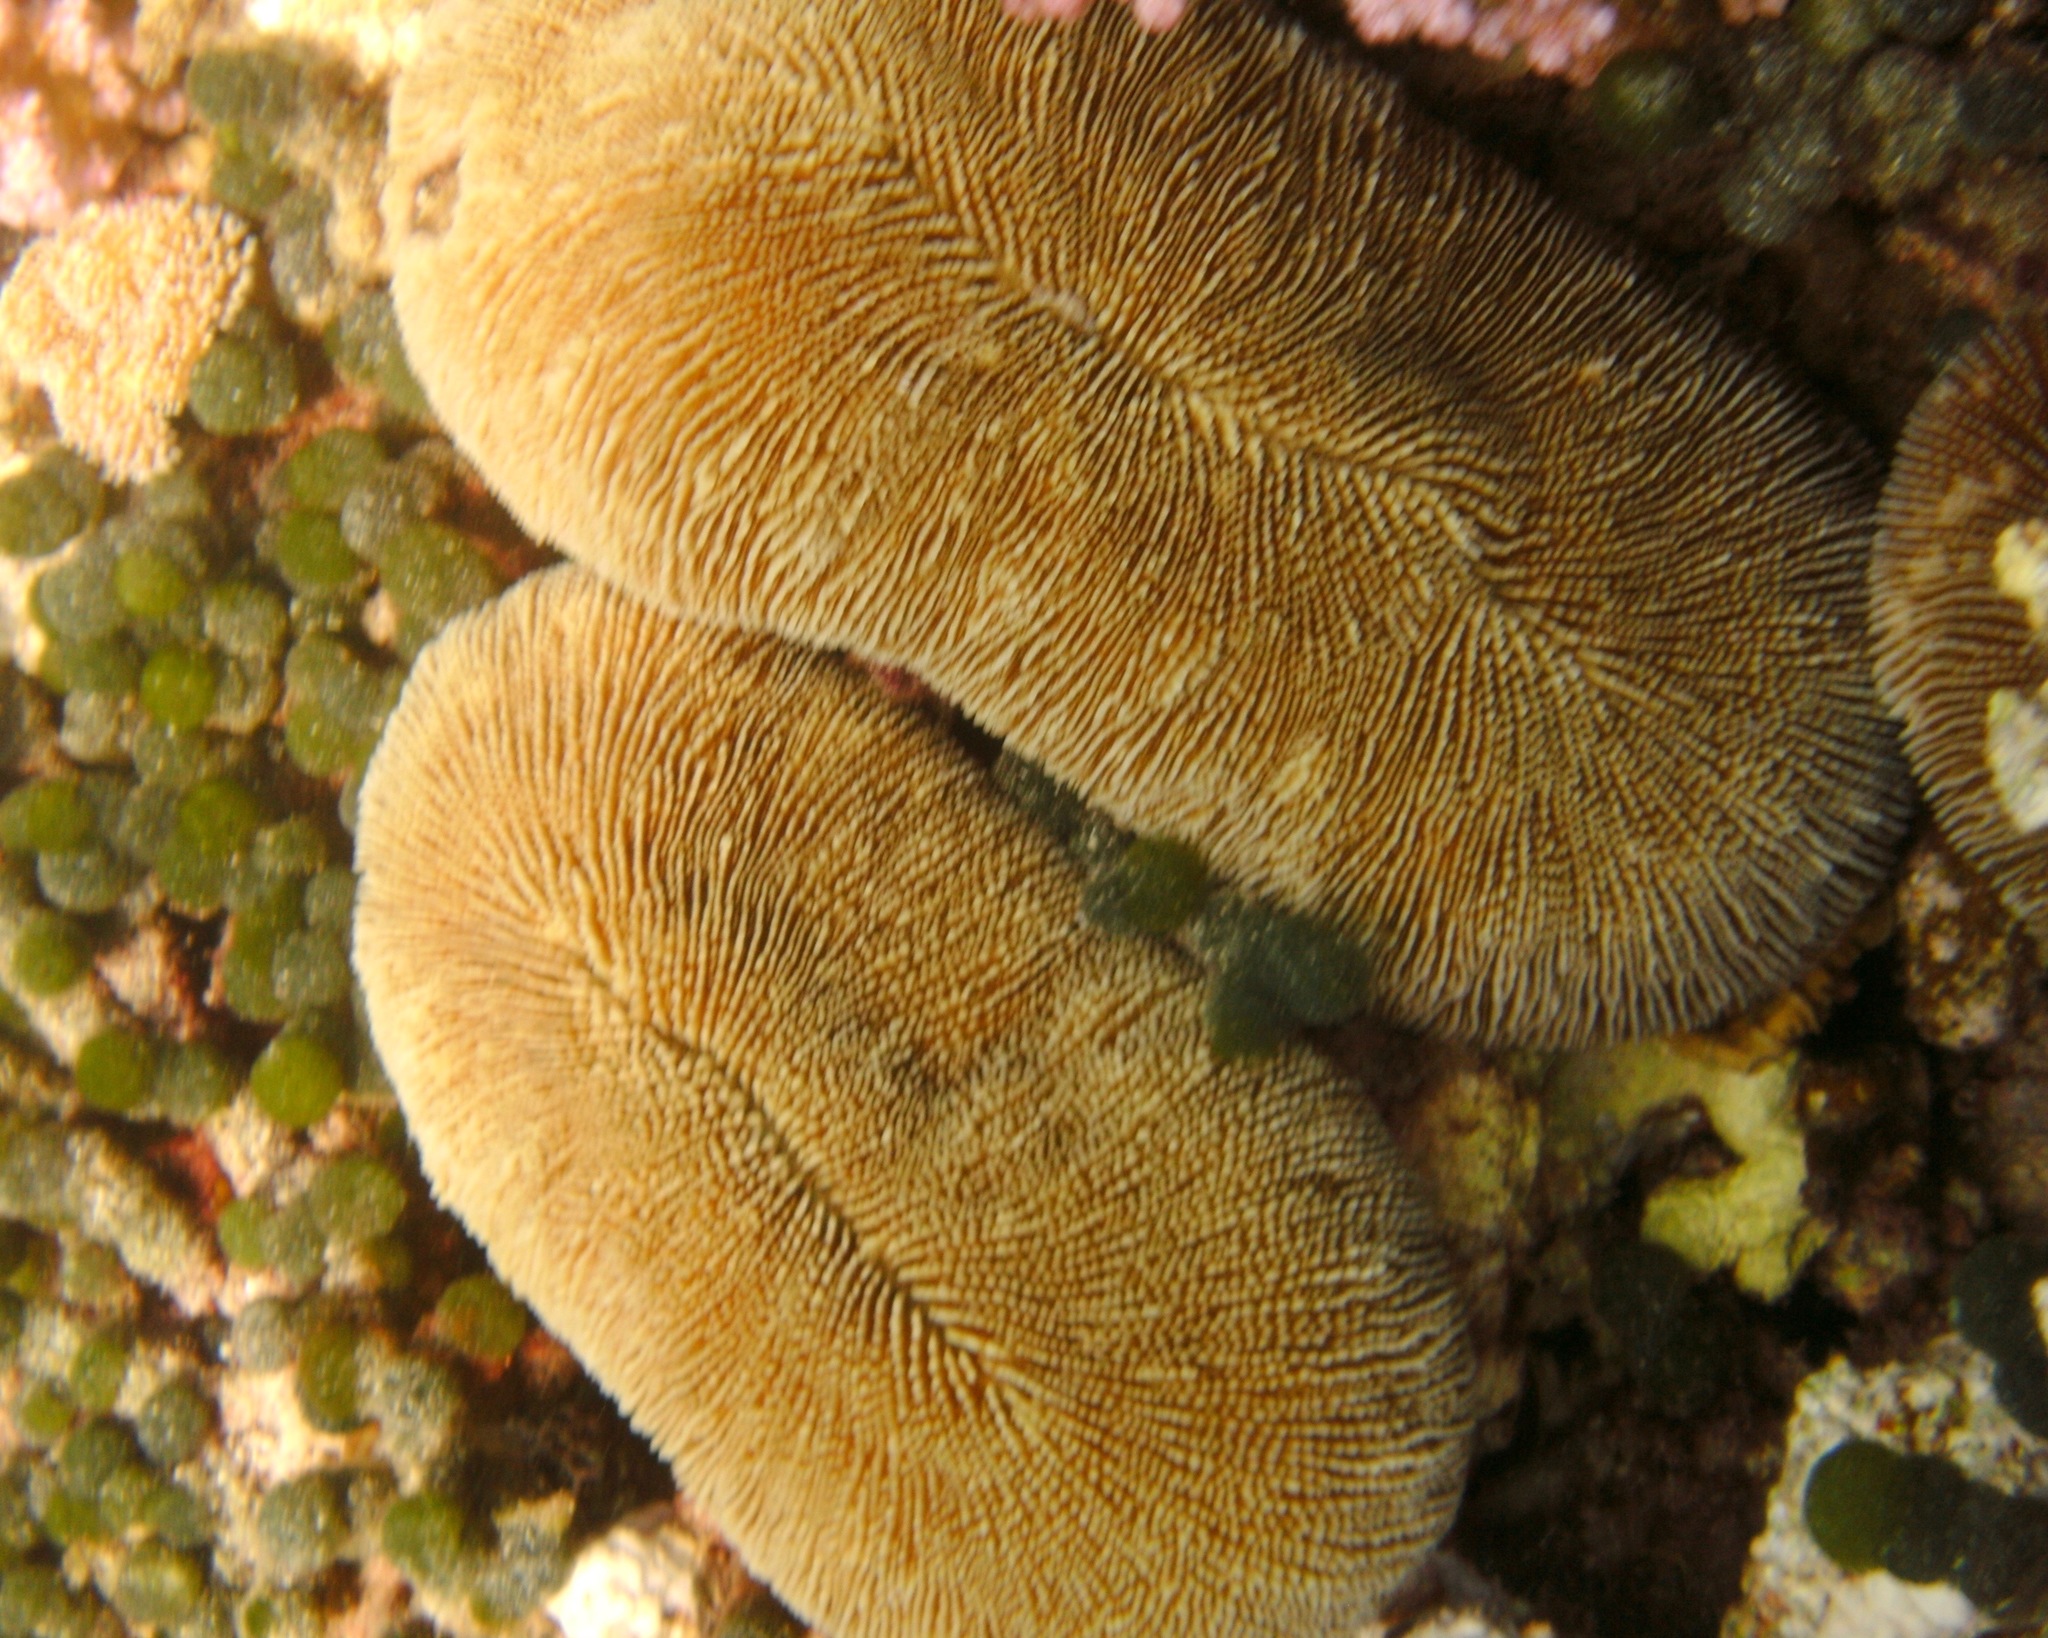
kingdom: Animalia
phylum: Cnidaria
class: Anthozoa
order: Scleractinia
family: Fungiidae
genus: Ctenactis
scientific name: Ctenactis crassa
